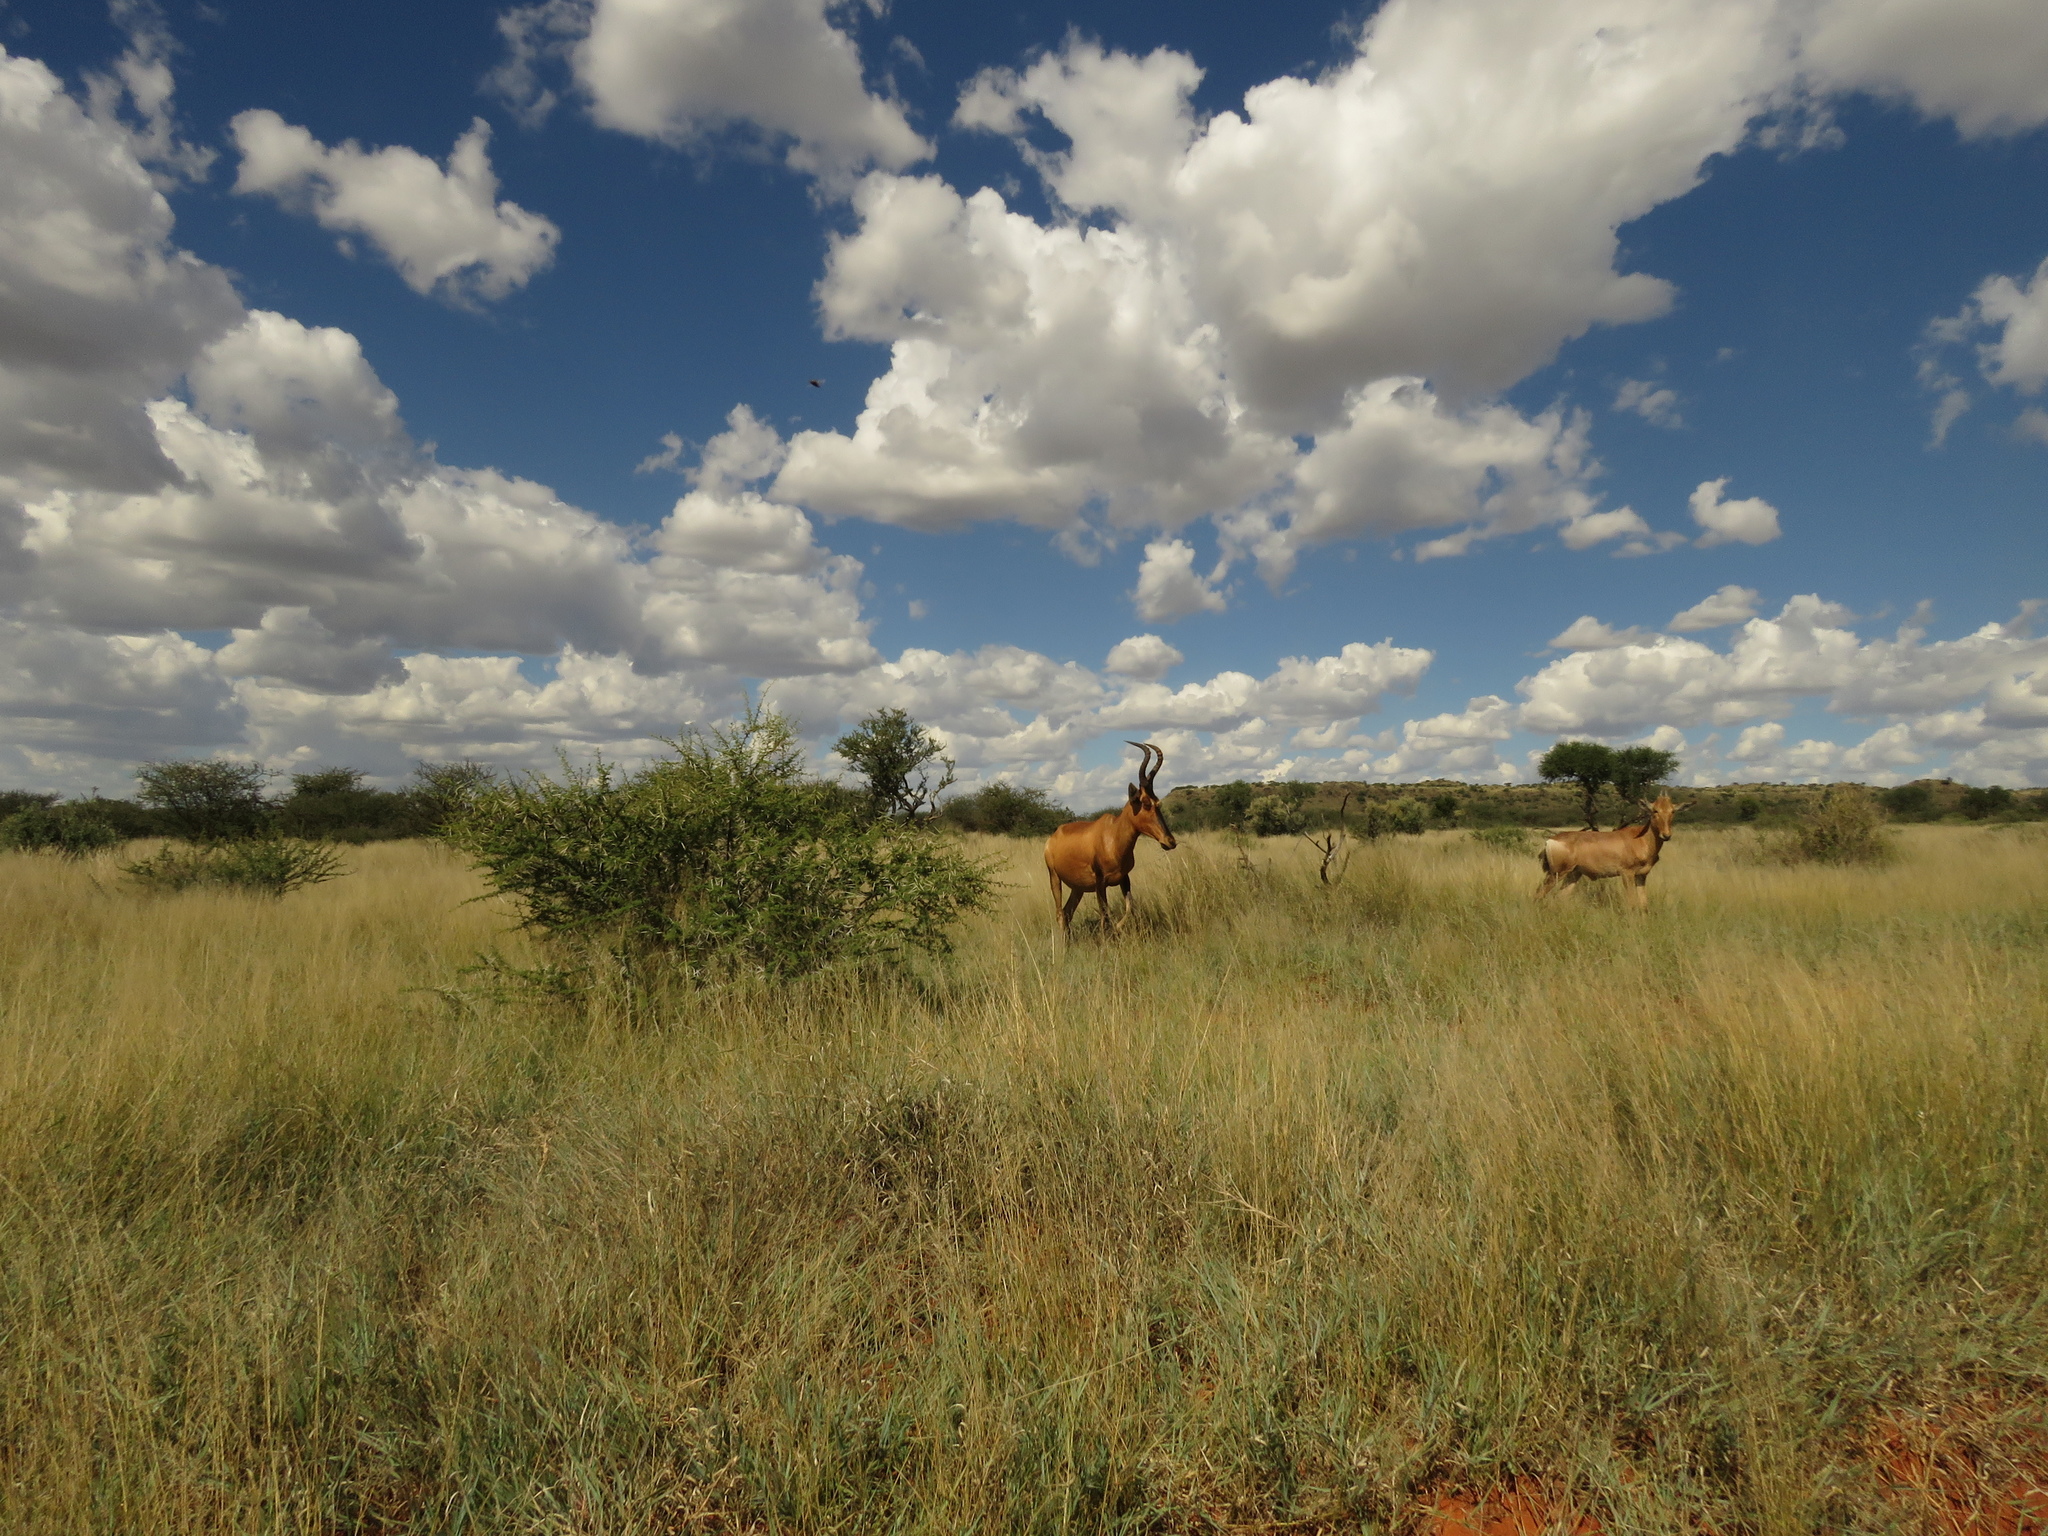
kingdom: Animalia
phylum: Chordata
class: Mammalia
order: Artiodactyla
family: Bovidae
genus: Alcelaphus
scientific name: Alcelaphus caama
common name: Red hartebeest
